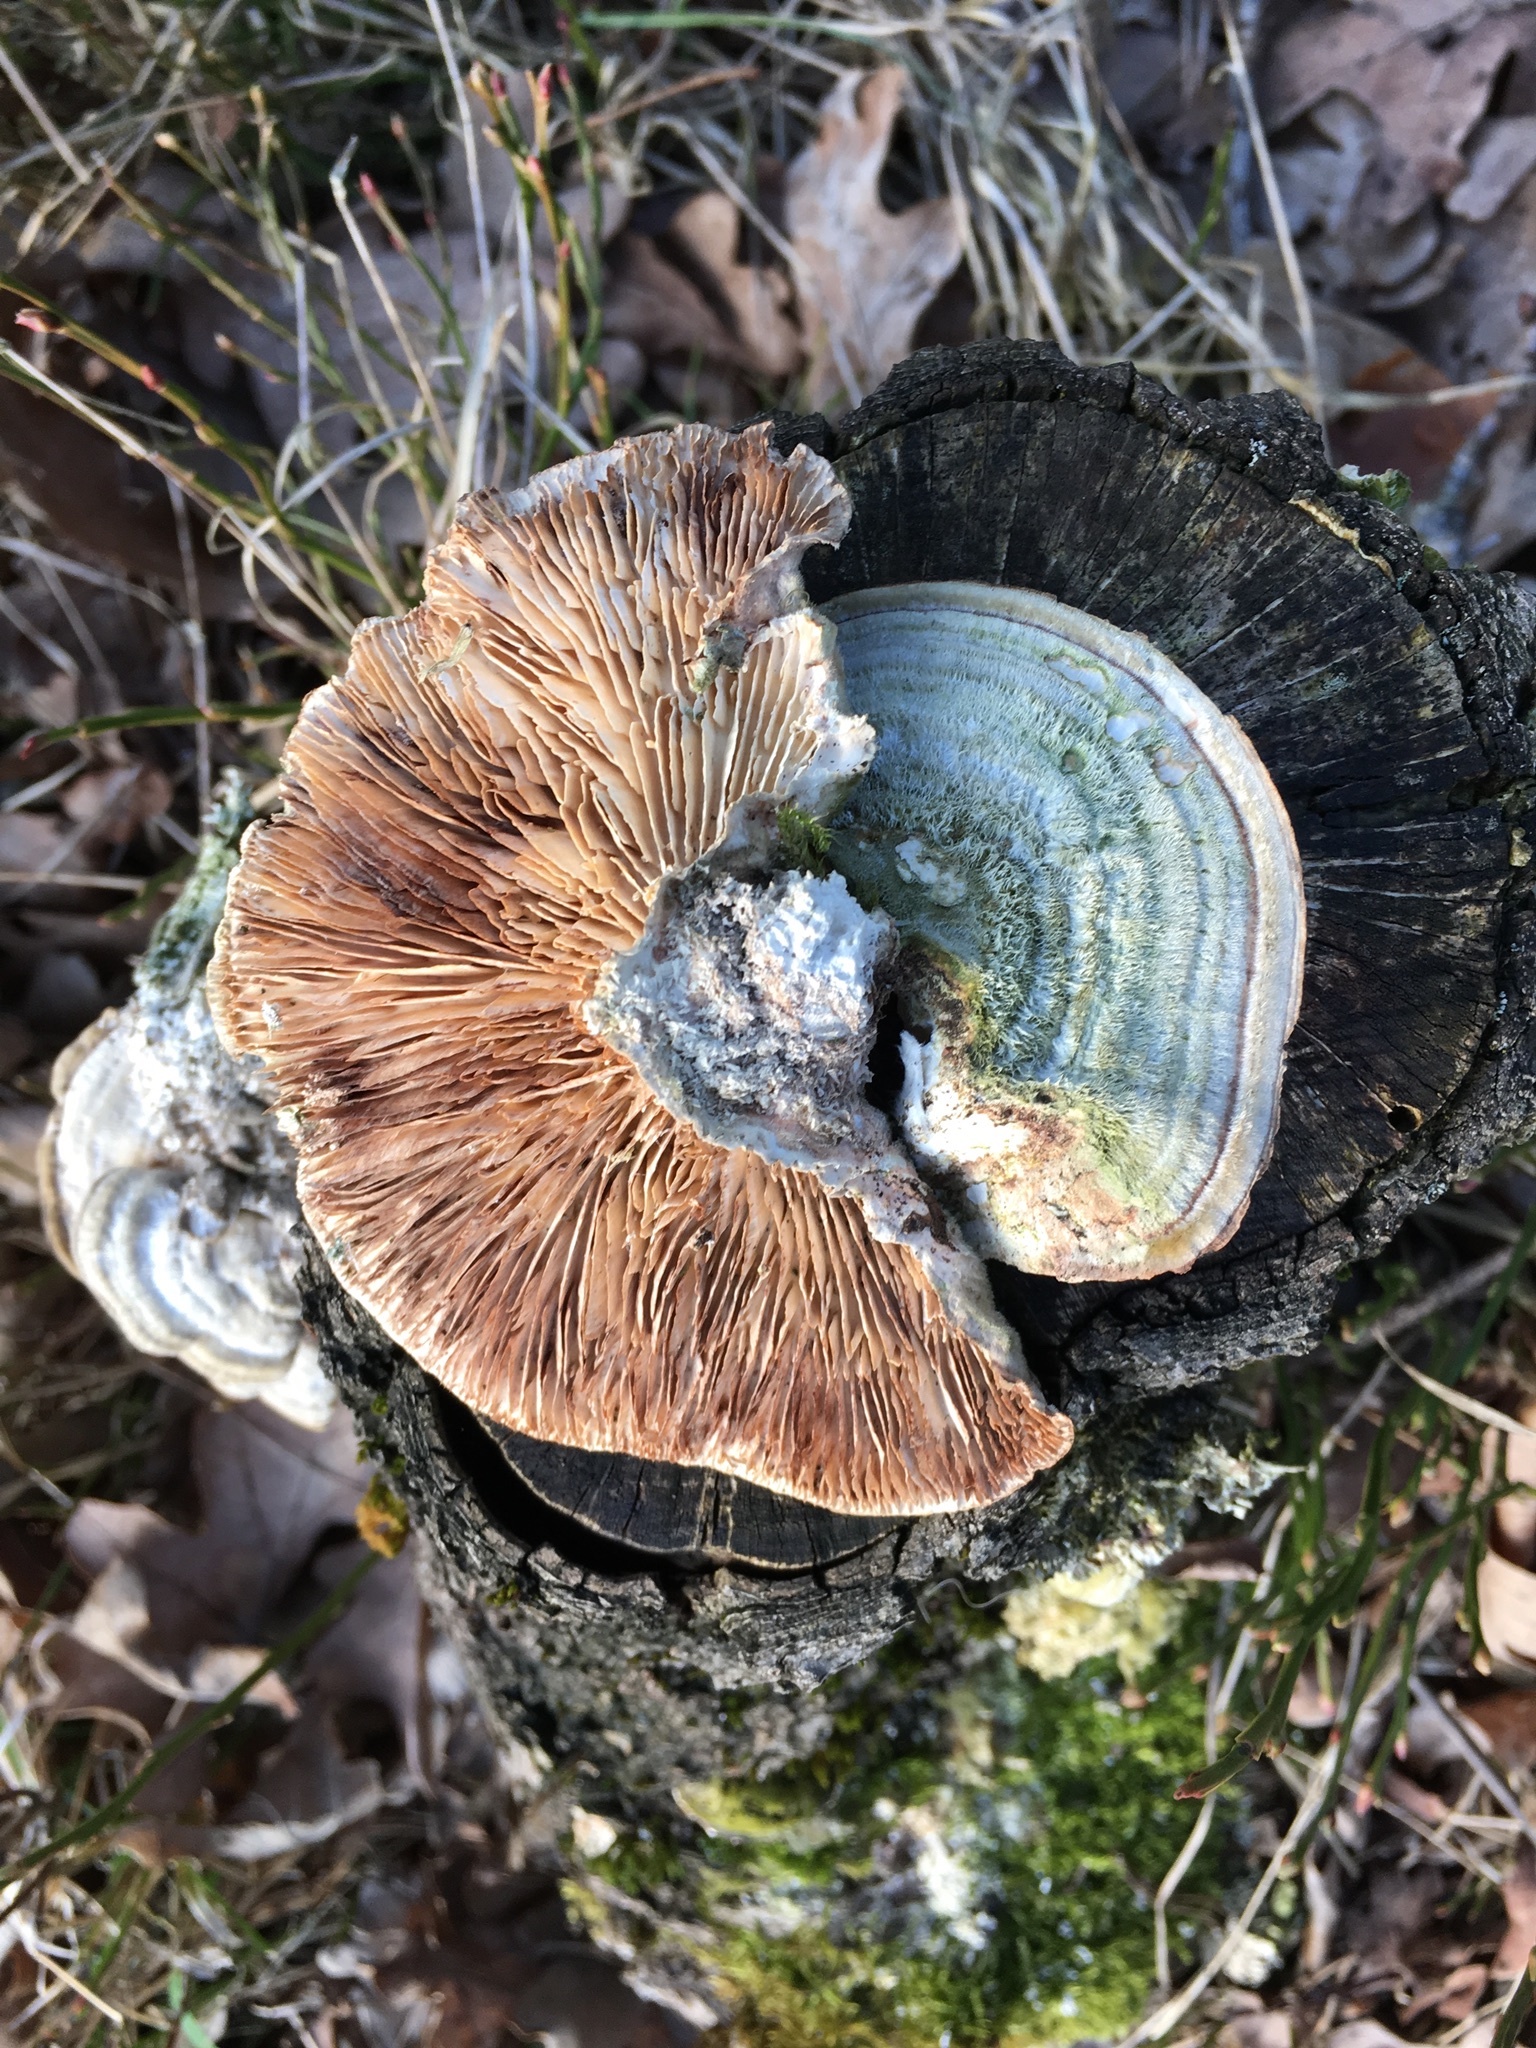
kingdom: Fungi
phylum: Basidiomycota
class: Agaricomycetes
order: Polyporales
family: Polyporaceae
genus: Lenzites
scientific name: Lenzites betulinus
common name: Birch mazegill
